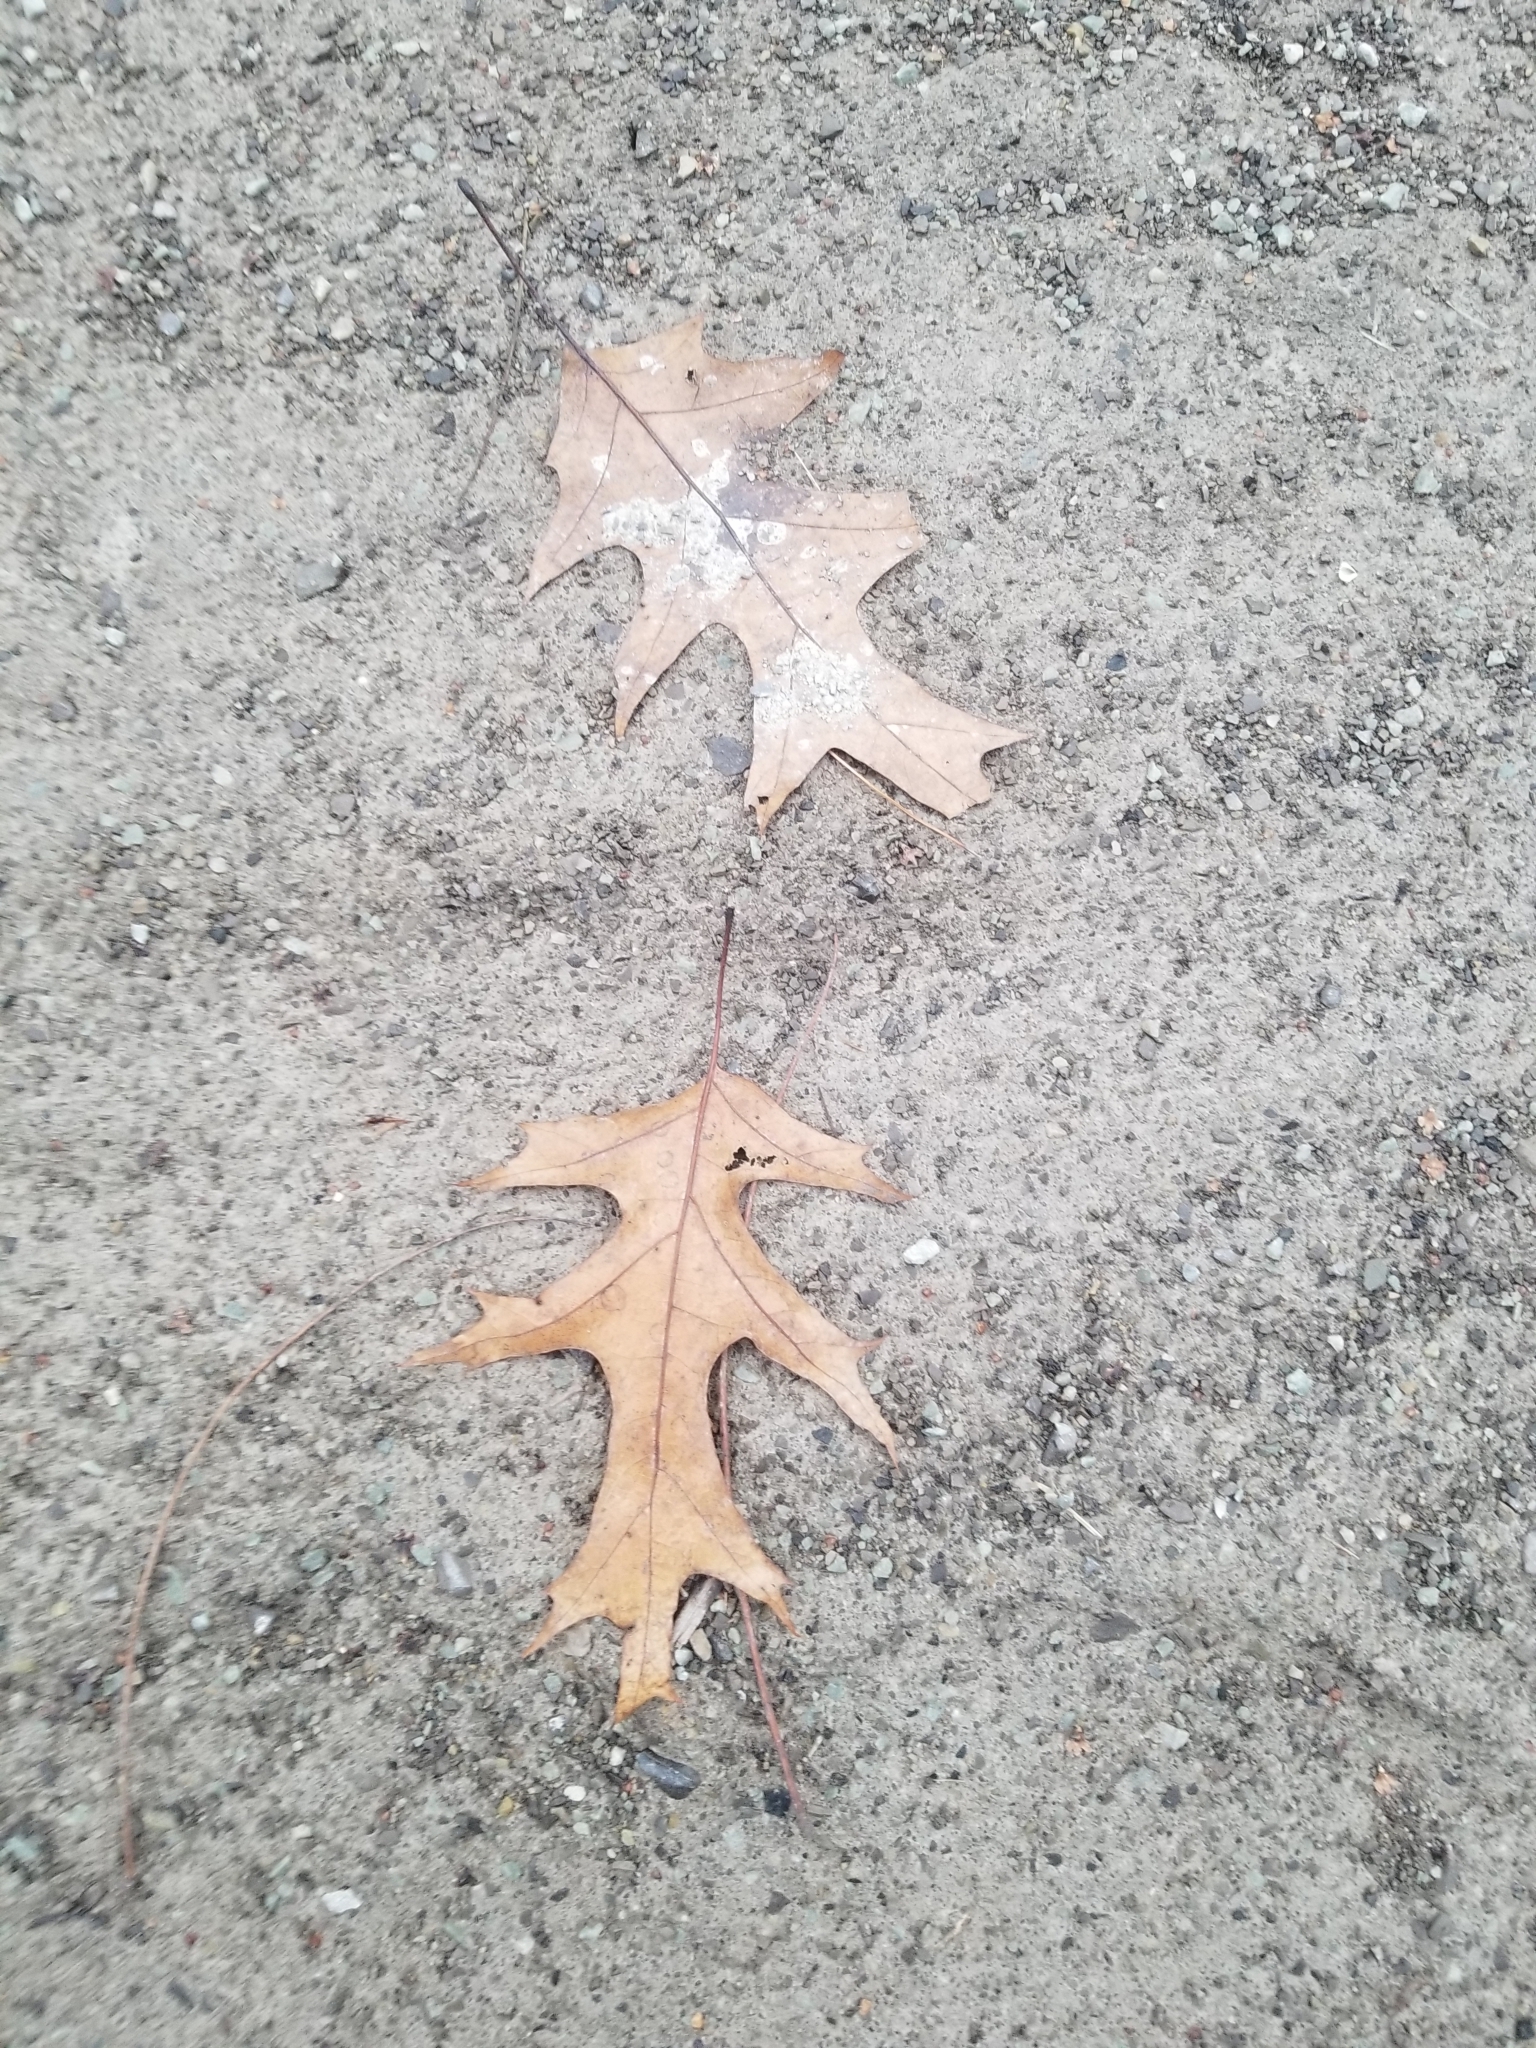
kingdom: Plantae
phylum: Tracheophyta
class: Magnoliopsida
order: Fagales
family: Fagaceae
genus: Quercus
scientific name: Quercus rubra
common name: Red oak
